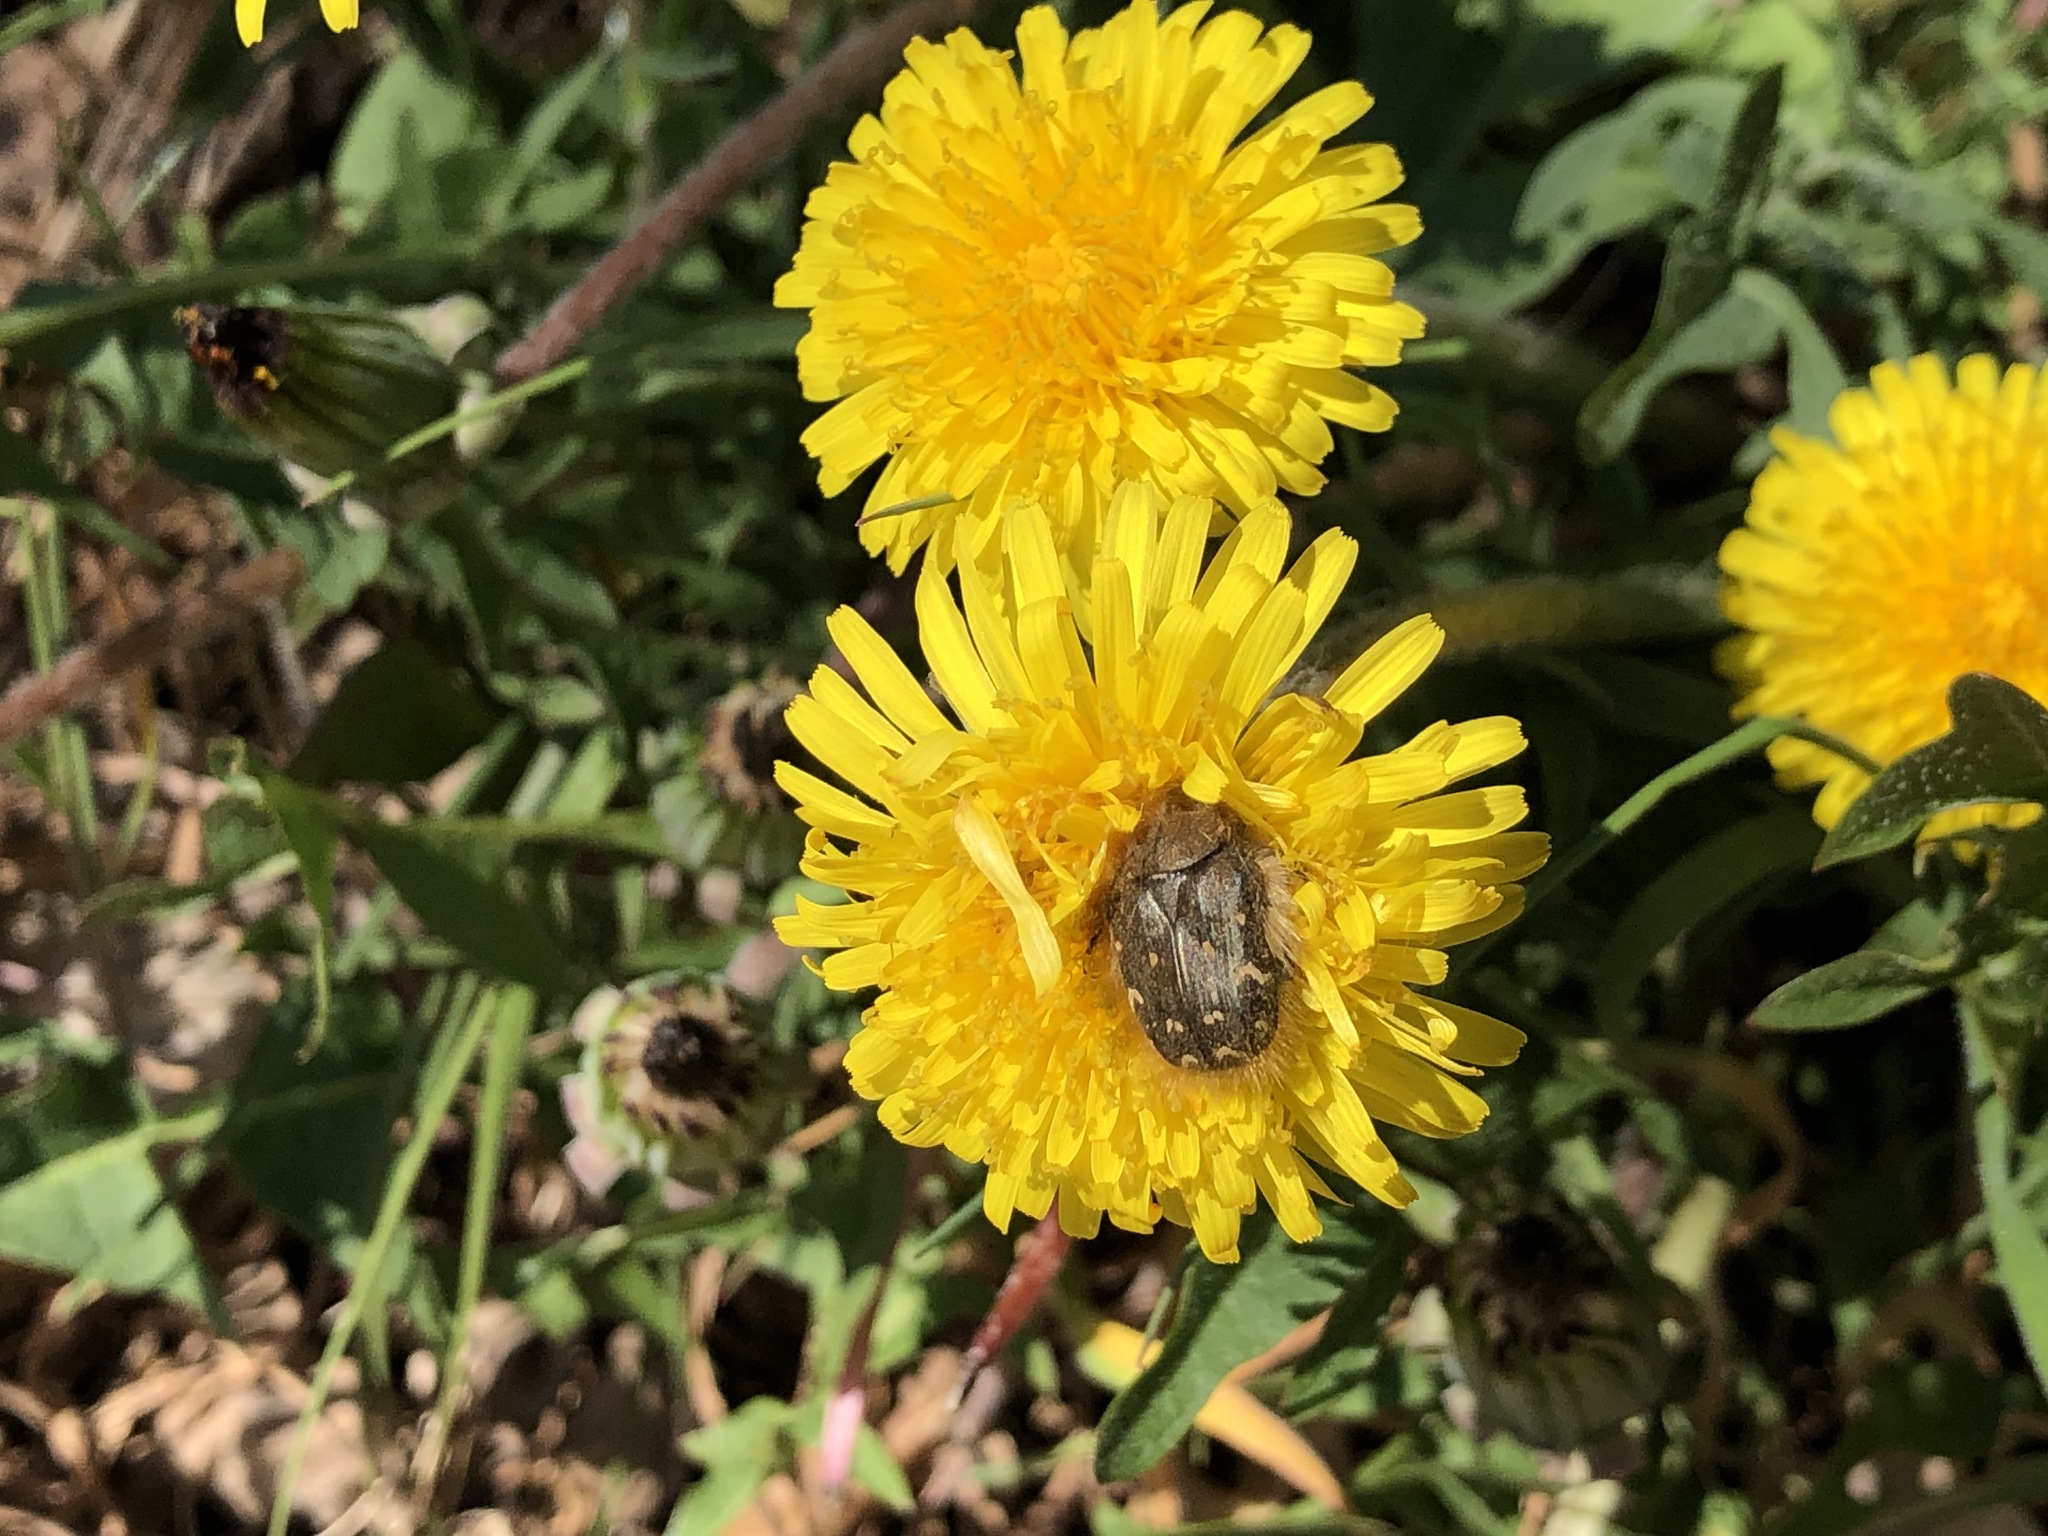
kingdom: Animalia
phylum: Arthropoda
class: Insecta
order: Coleoptera
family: Scarabaeidae
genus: Tropinota
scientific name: Tropinota hirta
